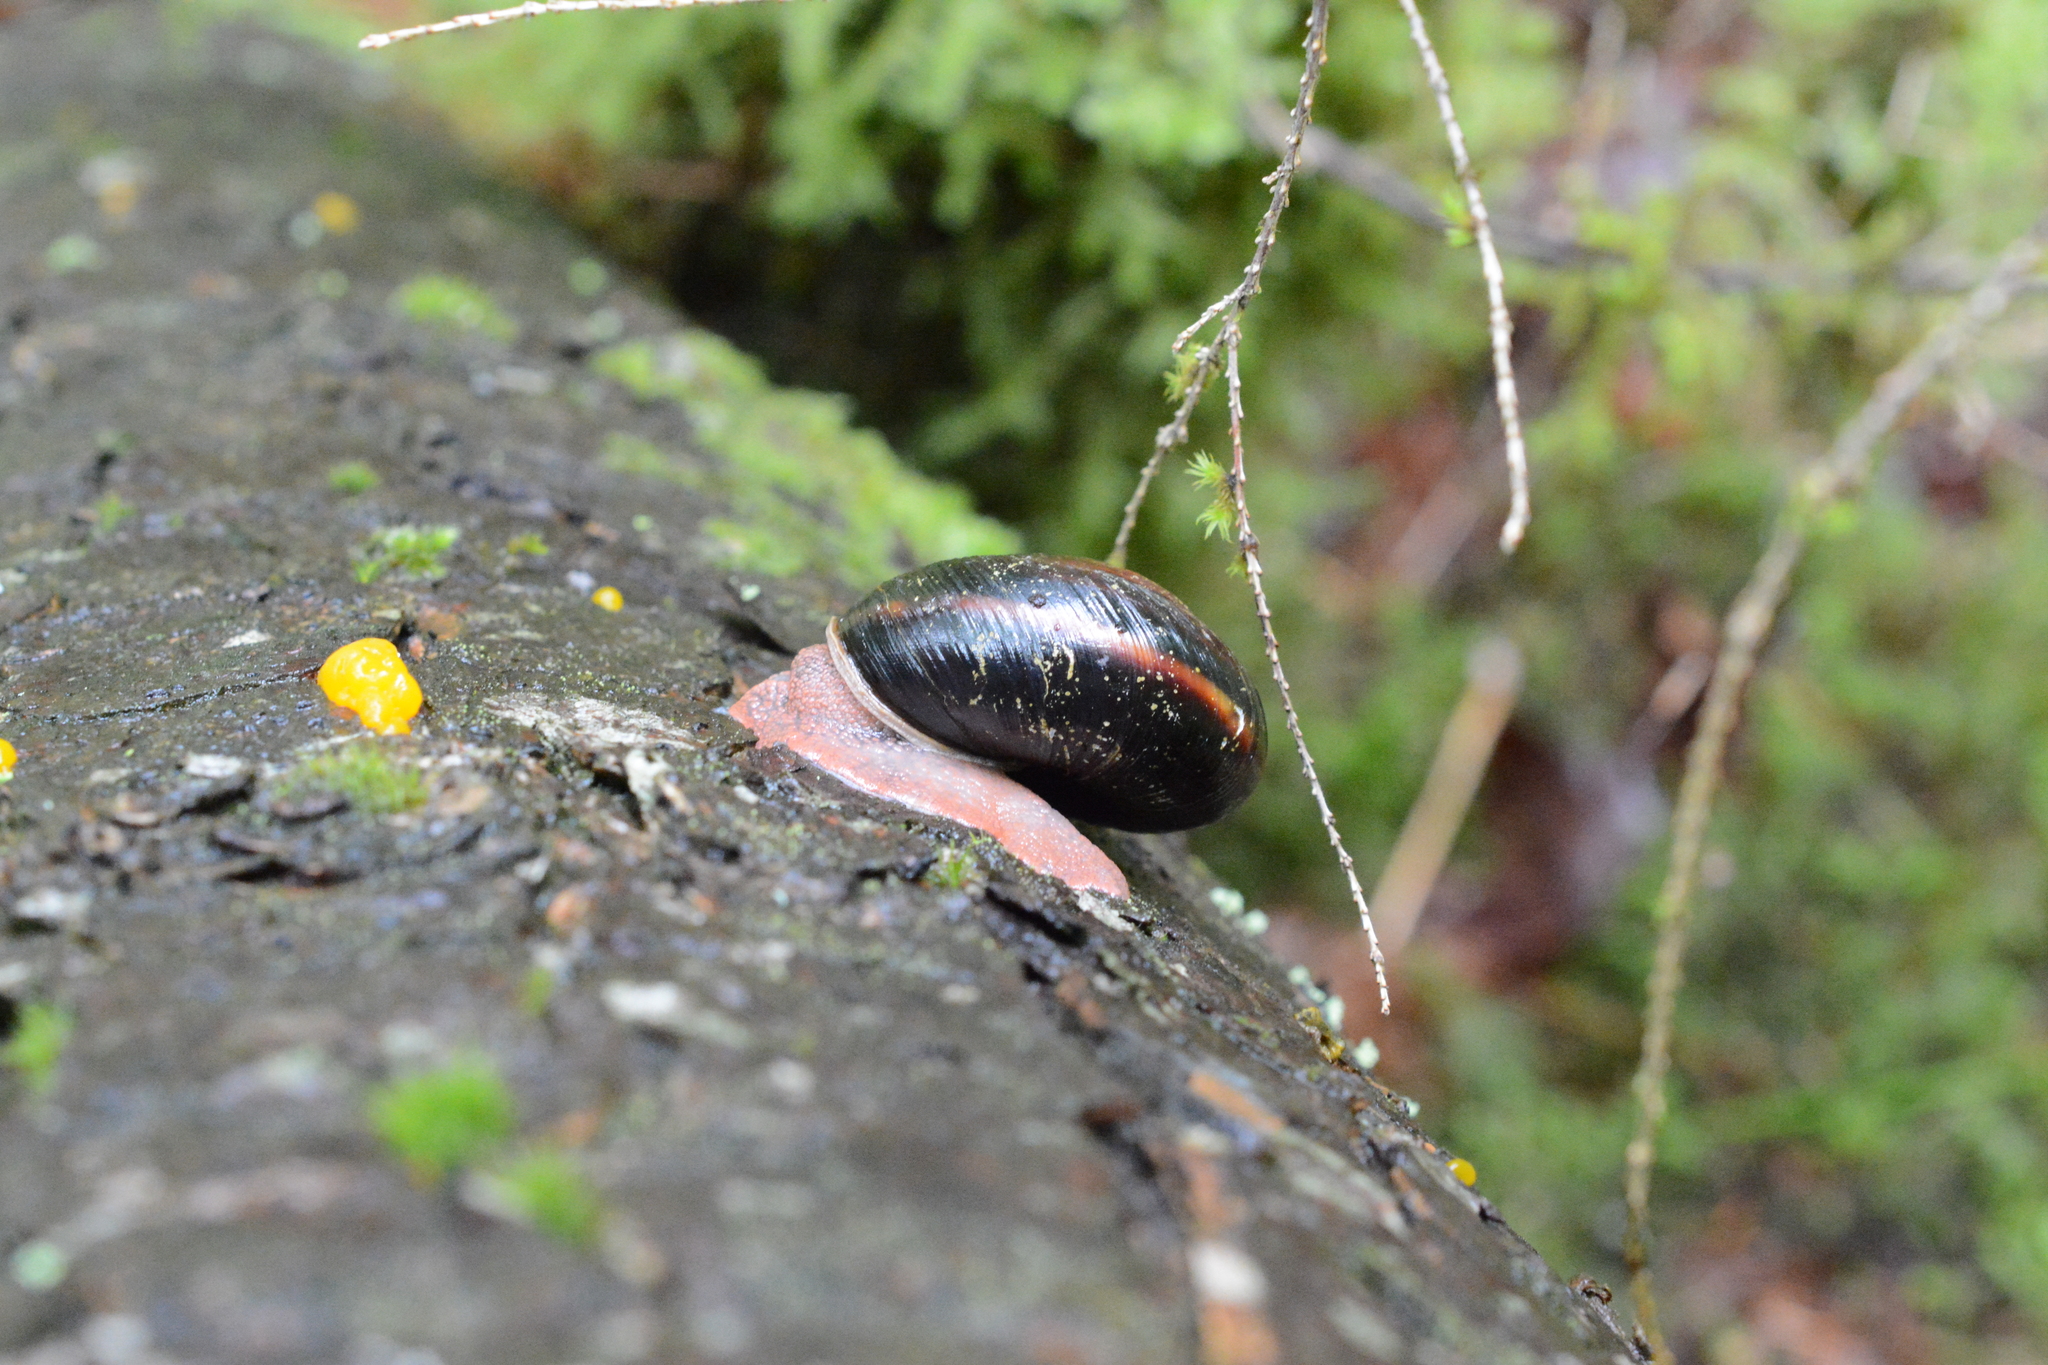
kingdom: Animalia
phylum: Mollusca
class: Gastropoda
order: Stylommatophora
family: Xanthonychidae
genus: Monadenia
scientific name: Monadenia fidelis
